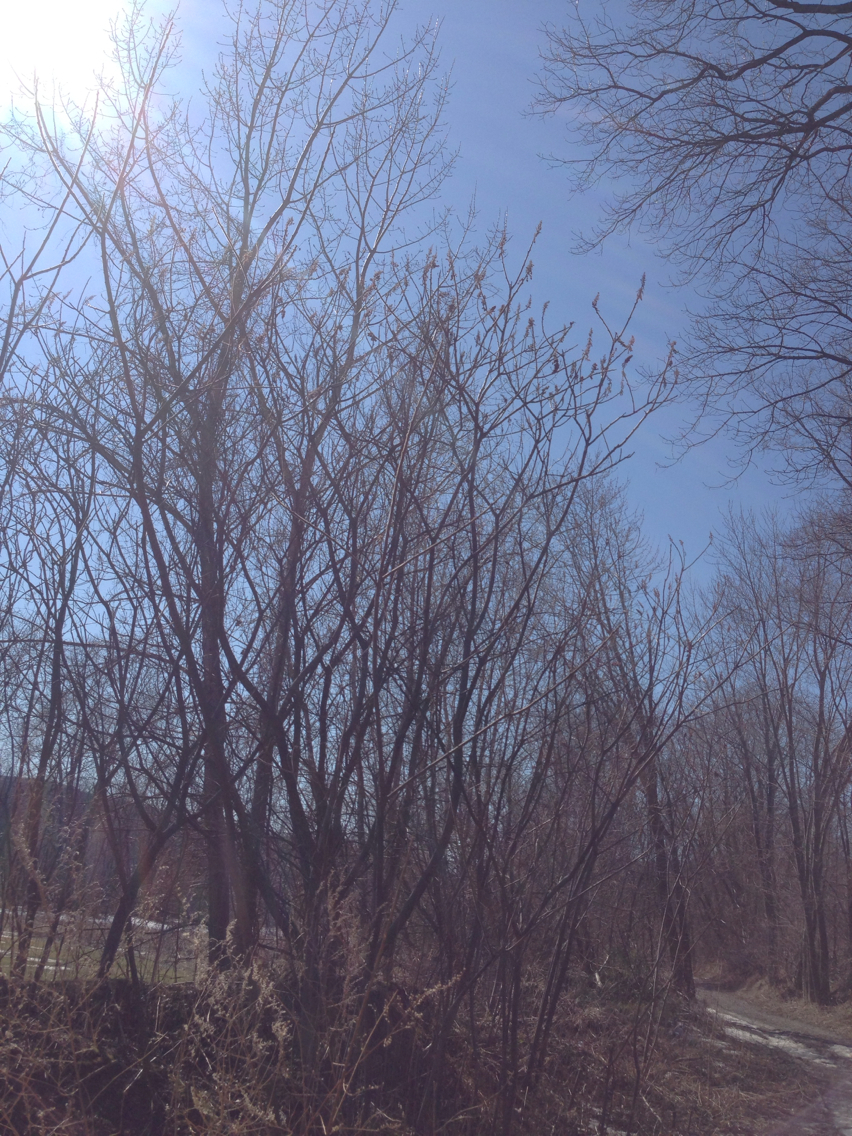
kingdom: Plantae
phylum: Tracheophyta
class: Magnoliopsida
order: Sapindales
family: Anacardiaceae
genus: Rhus
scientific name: Rhus typhina
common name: Staghorn sumac
